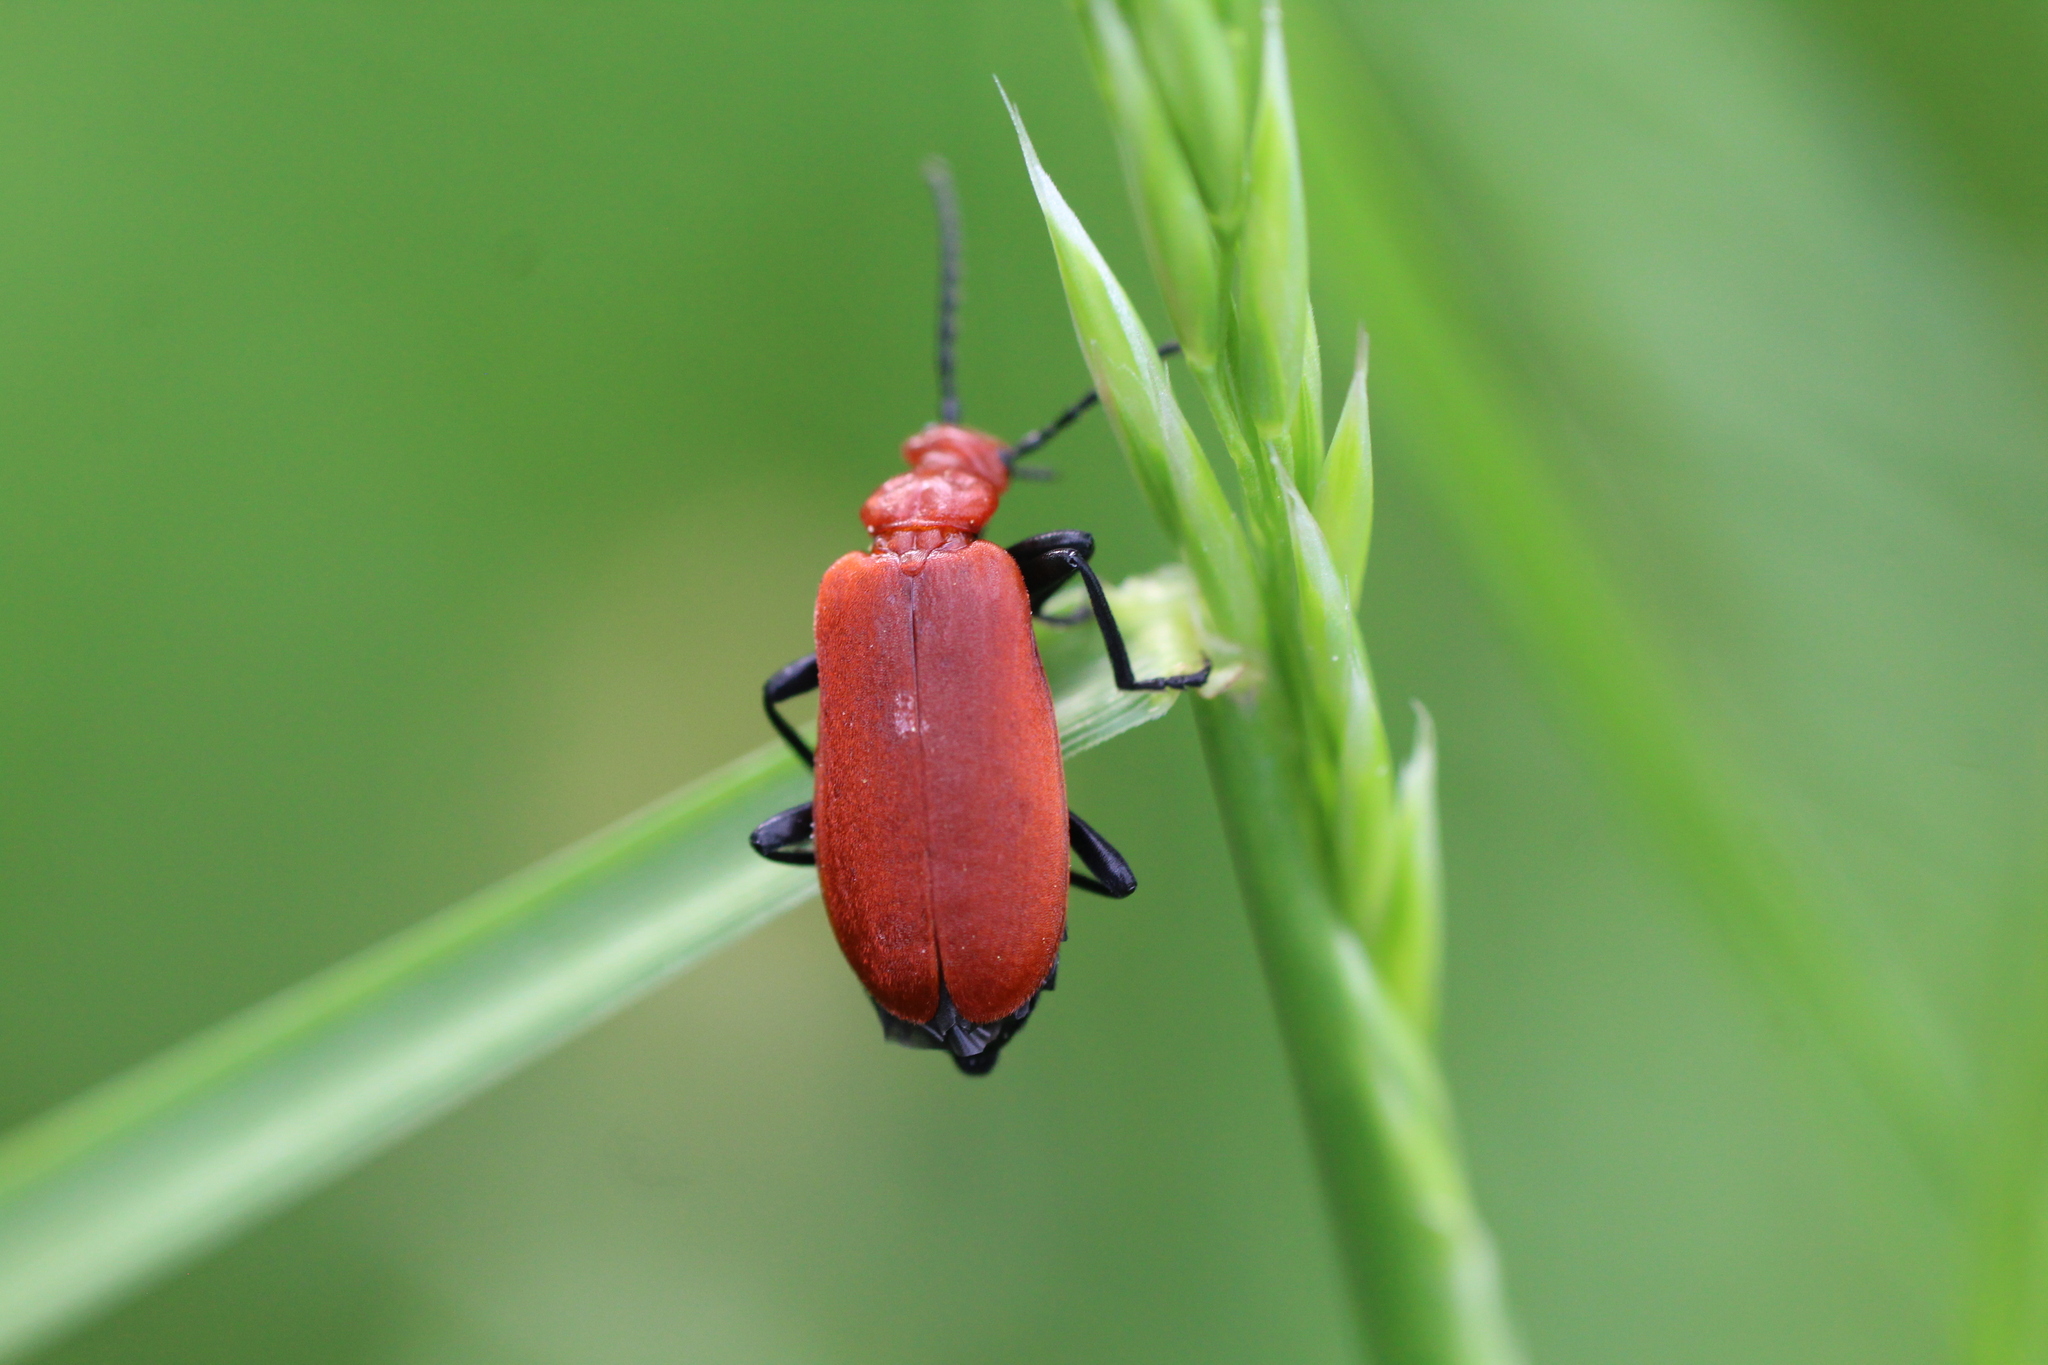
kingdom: Animalia
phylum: Arthropoda
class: Insecta
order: Coleoptera
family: Pyrochroidae
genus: Pyrochroa
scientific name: Pyrochroa serraticornis
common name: Red-headed cardinal beetle
